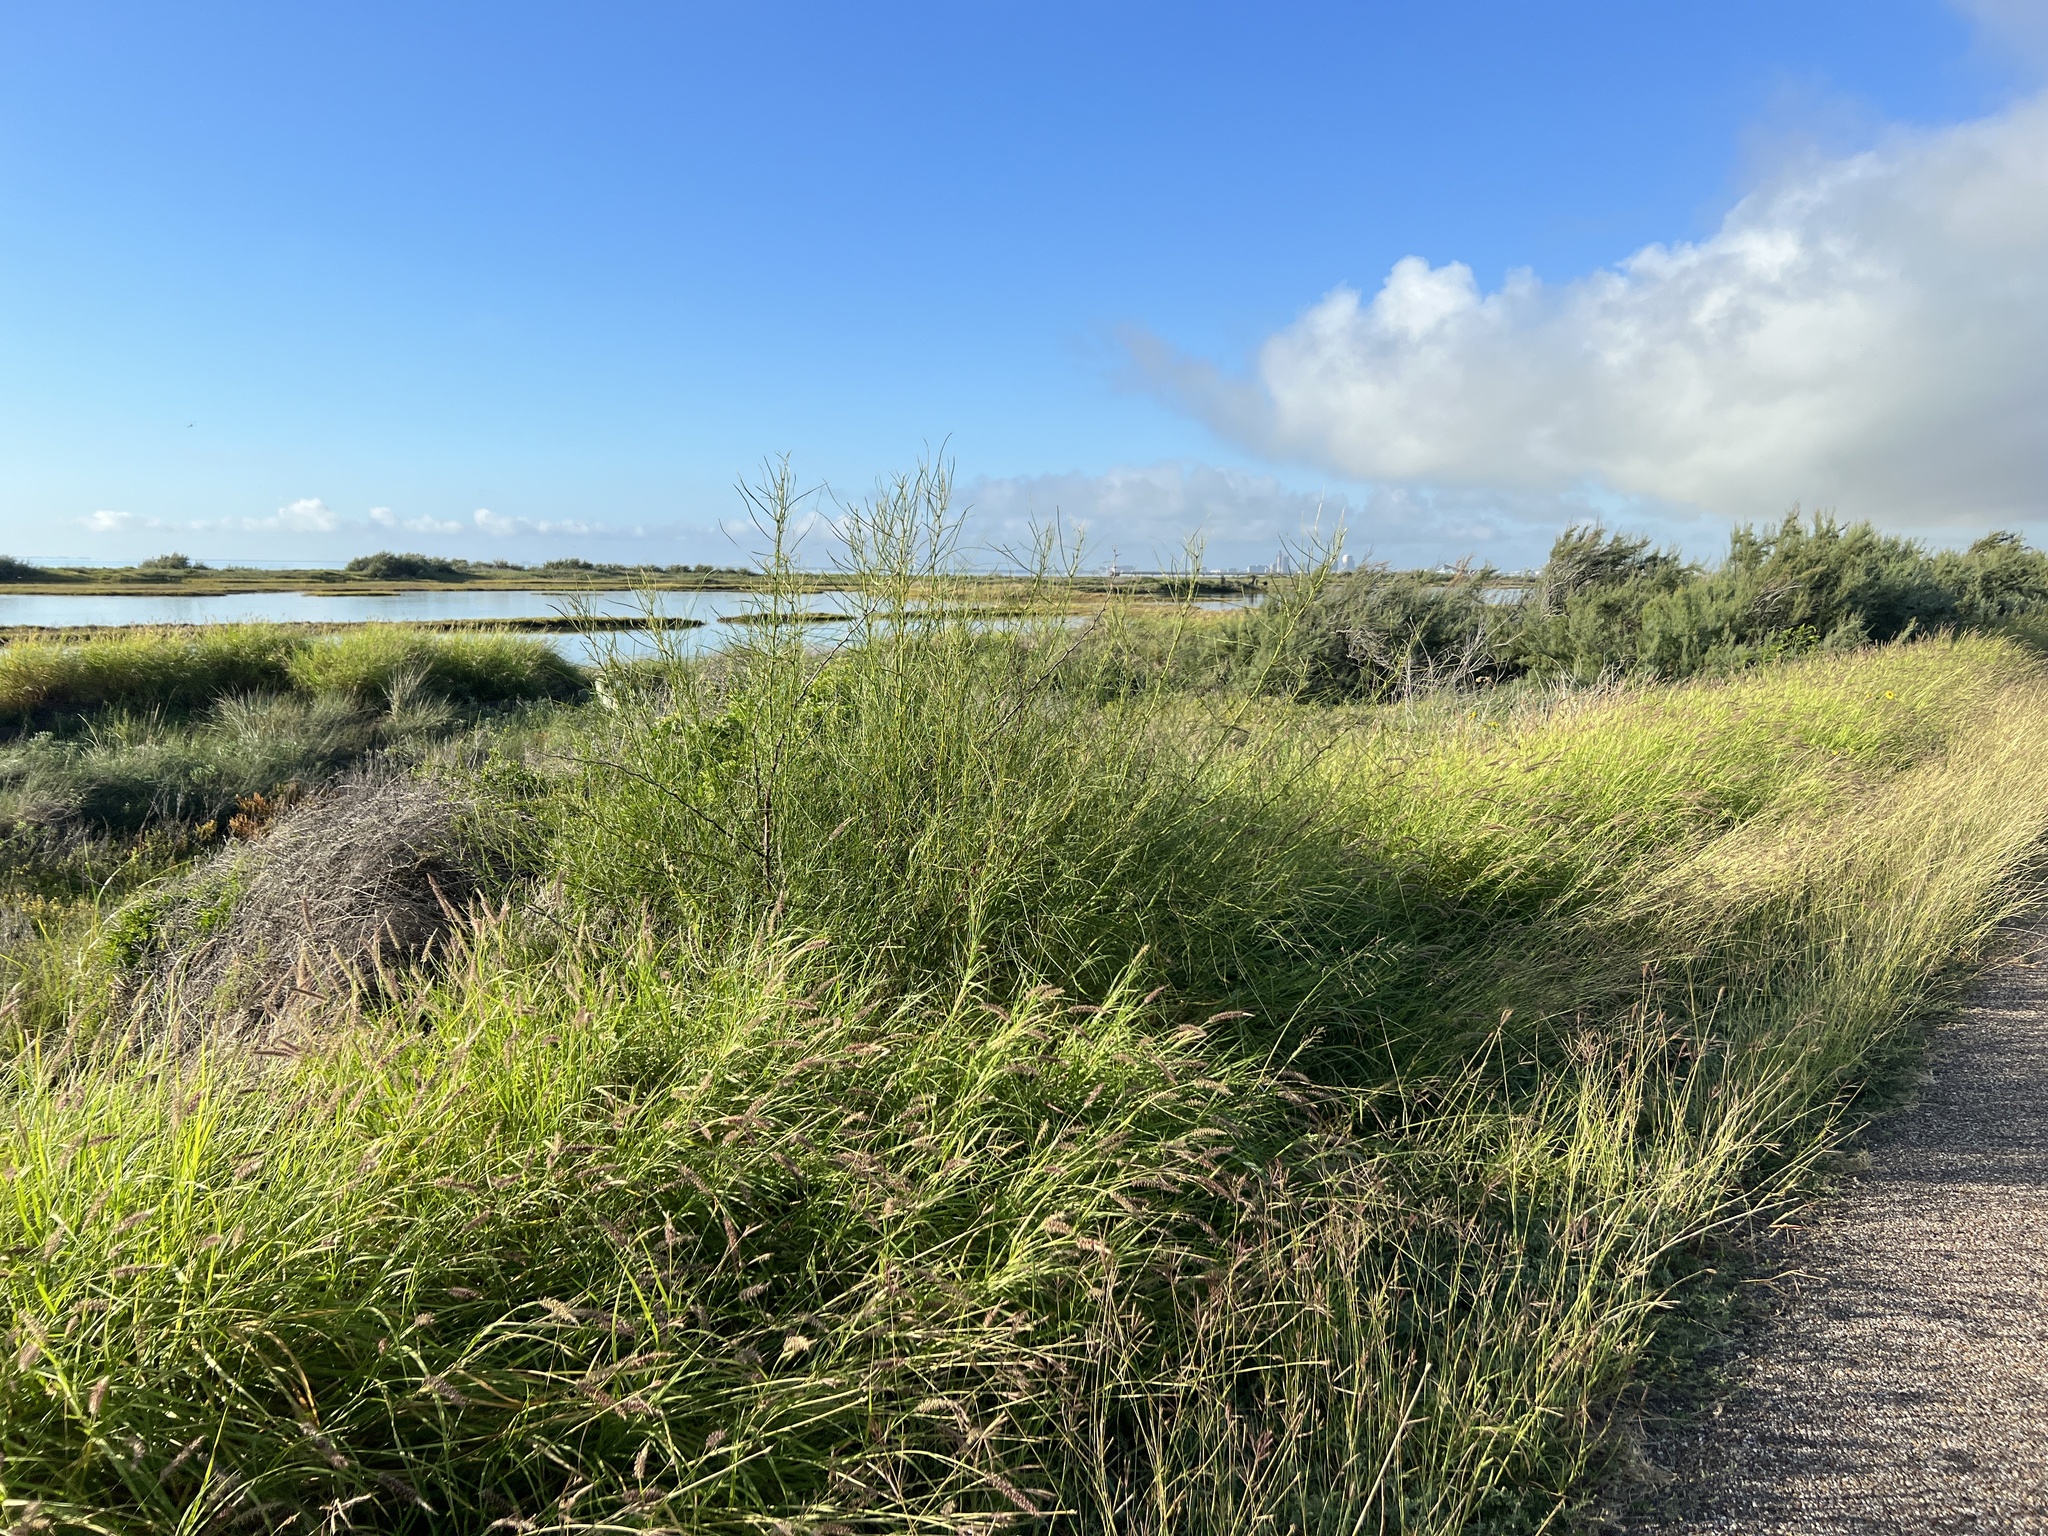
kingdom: Plantae
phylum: Tracheophyta
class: Magnoliopsida
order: Fabales
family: Fabaceae
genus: Parkinsonia
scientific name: Parkinsonia aculeata
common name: Jerusalem thorn
